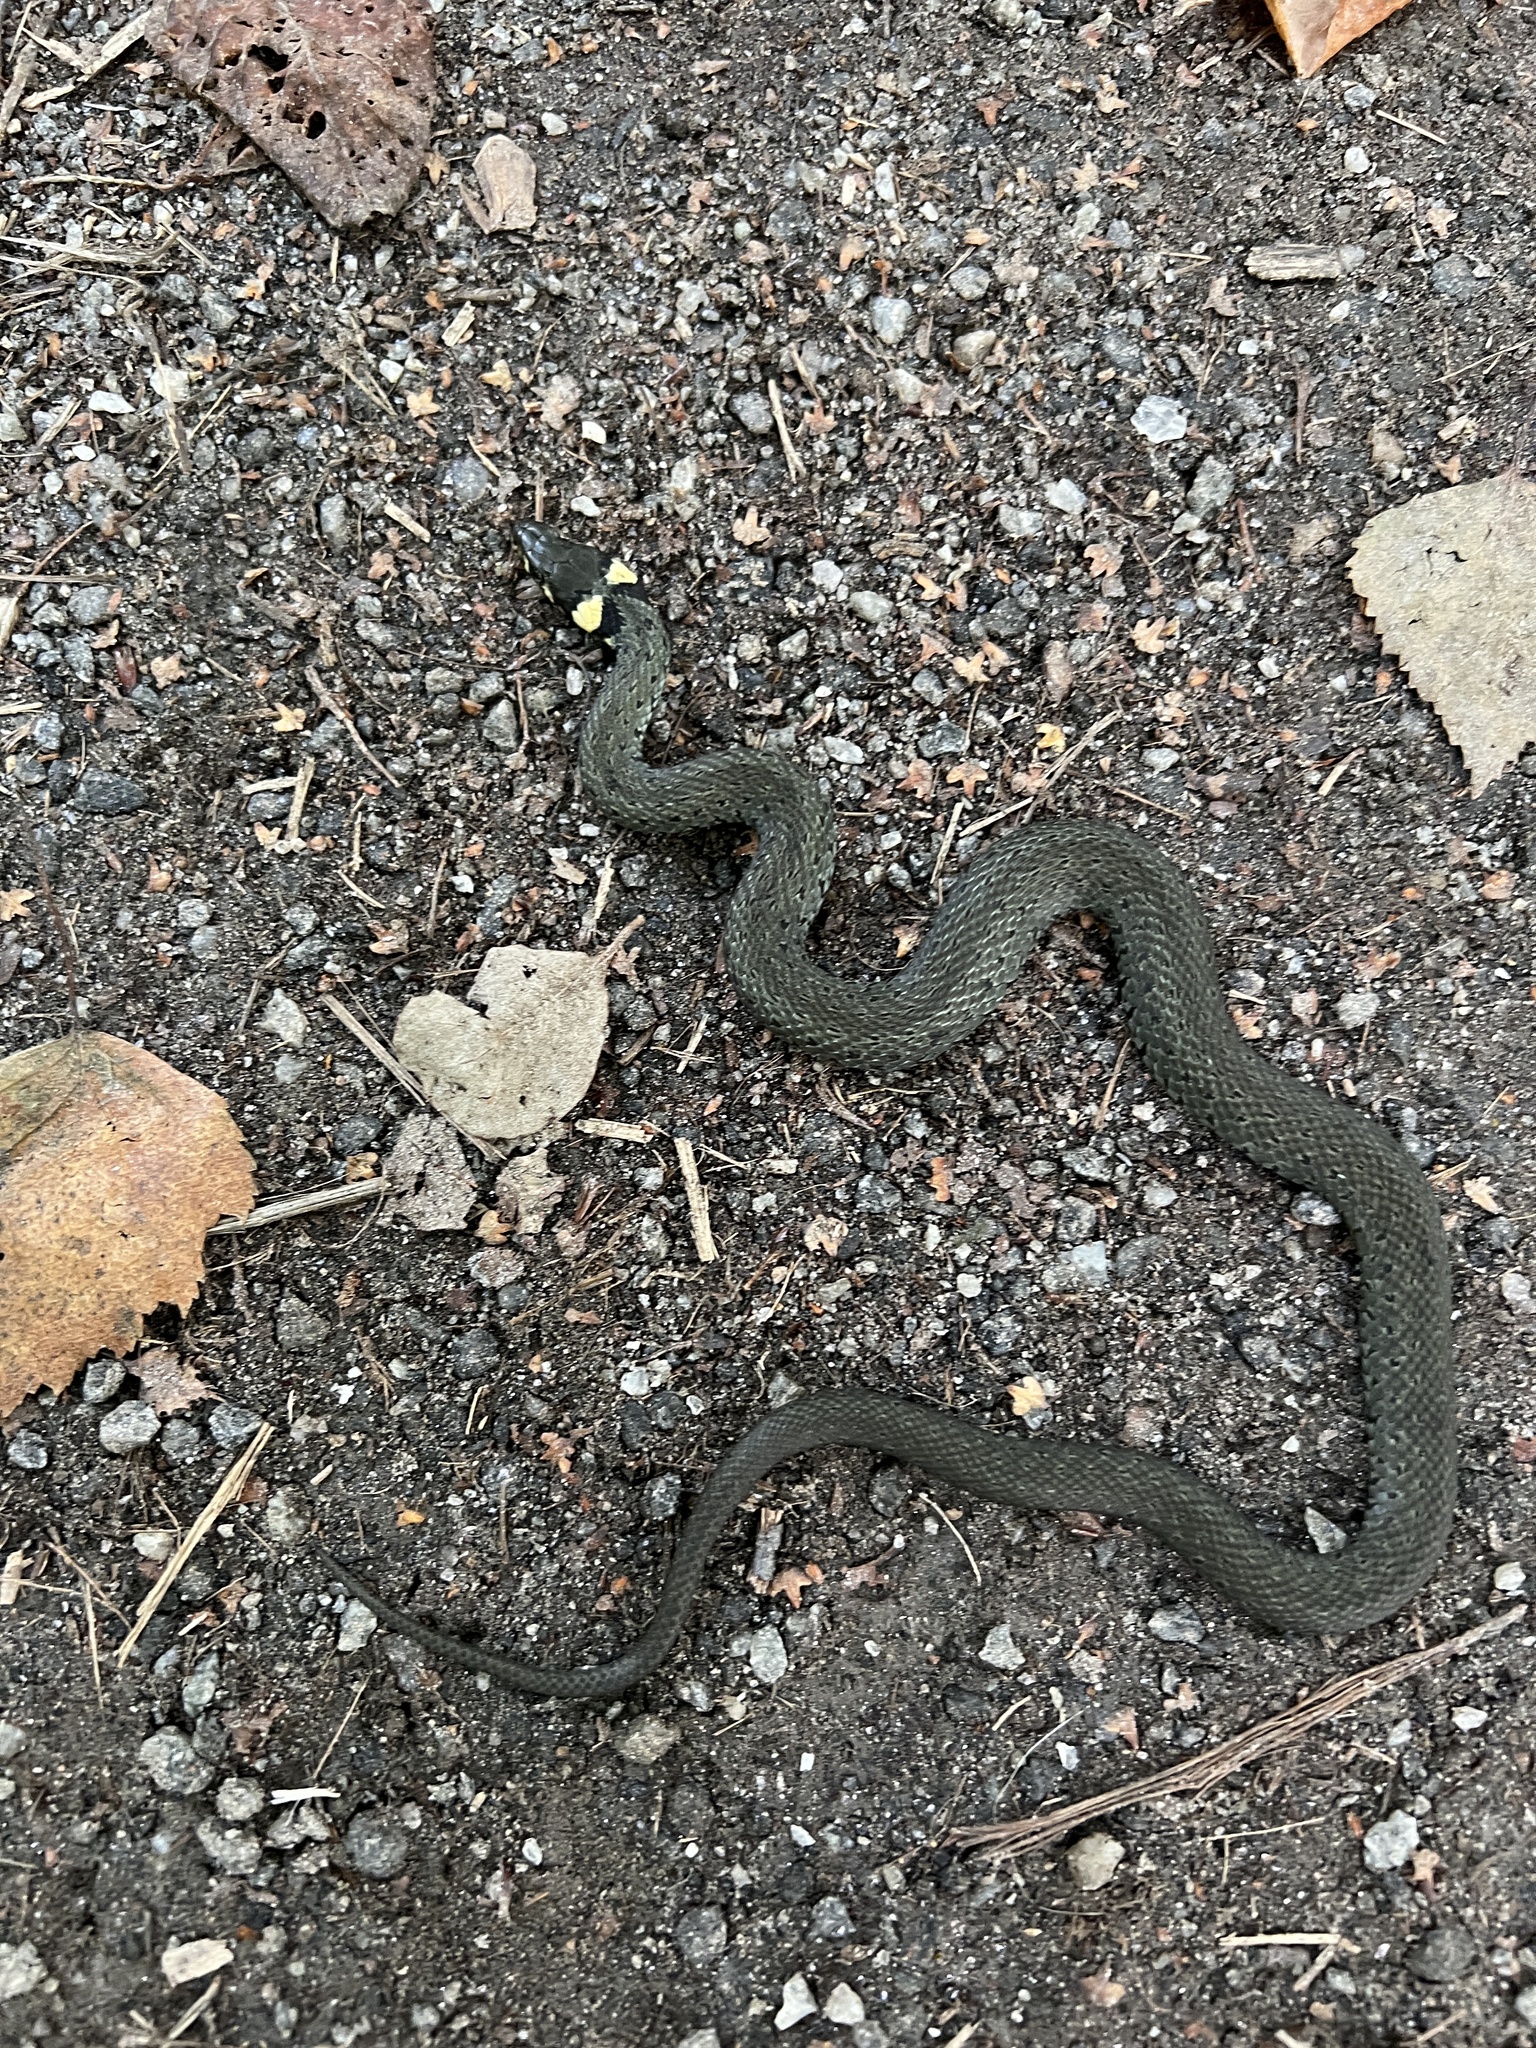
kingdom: Animalia
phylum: Chordata
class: Squamata
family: Colubridae
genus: Natrix
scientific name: Natrix natrix
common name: Grass snake
